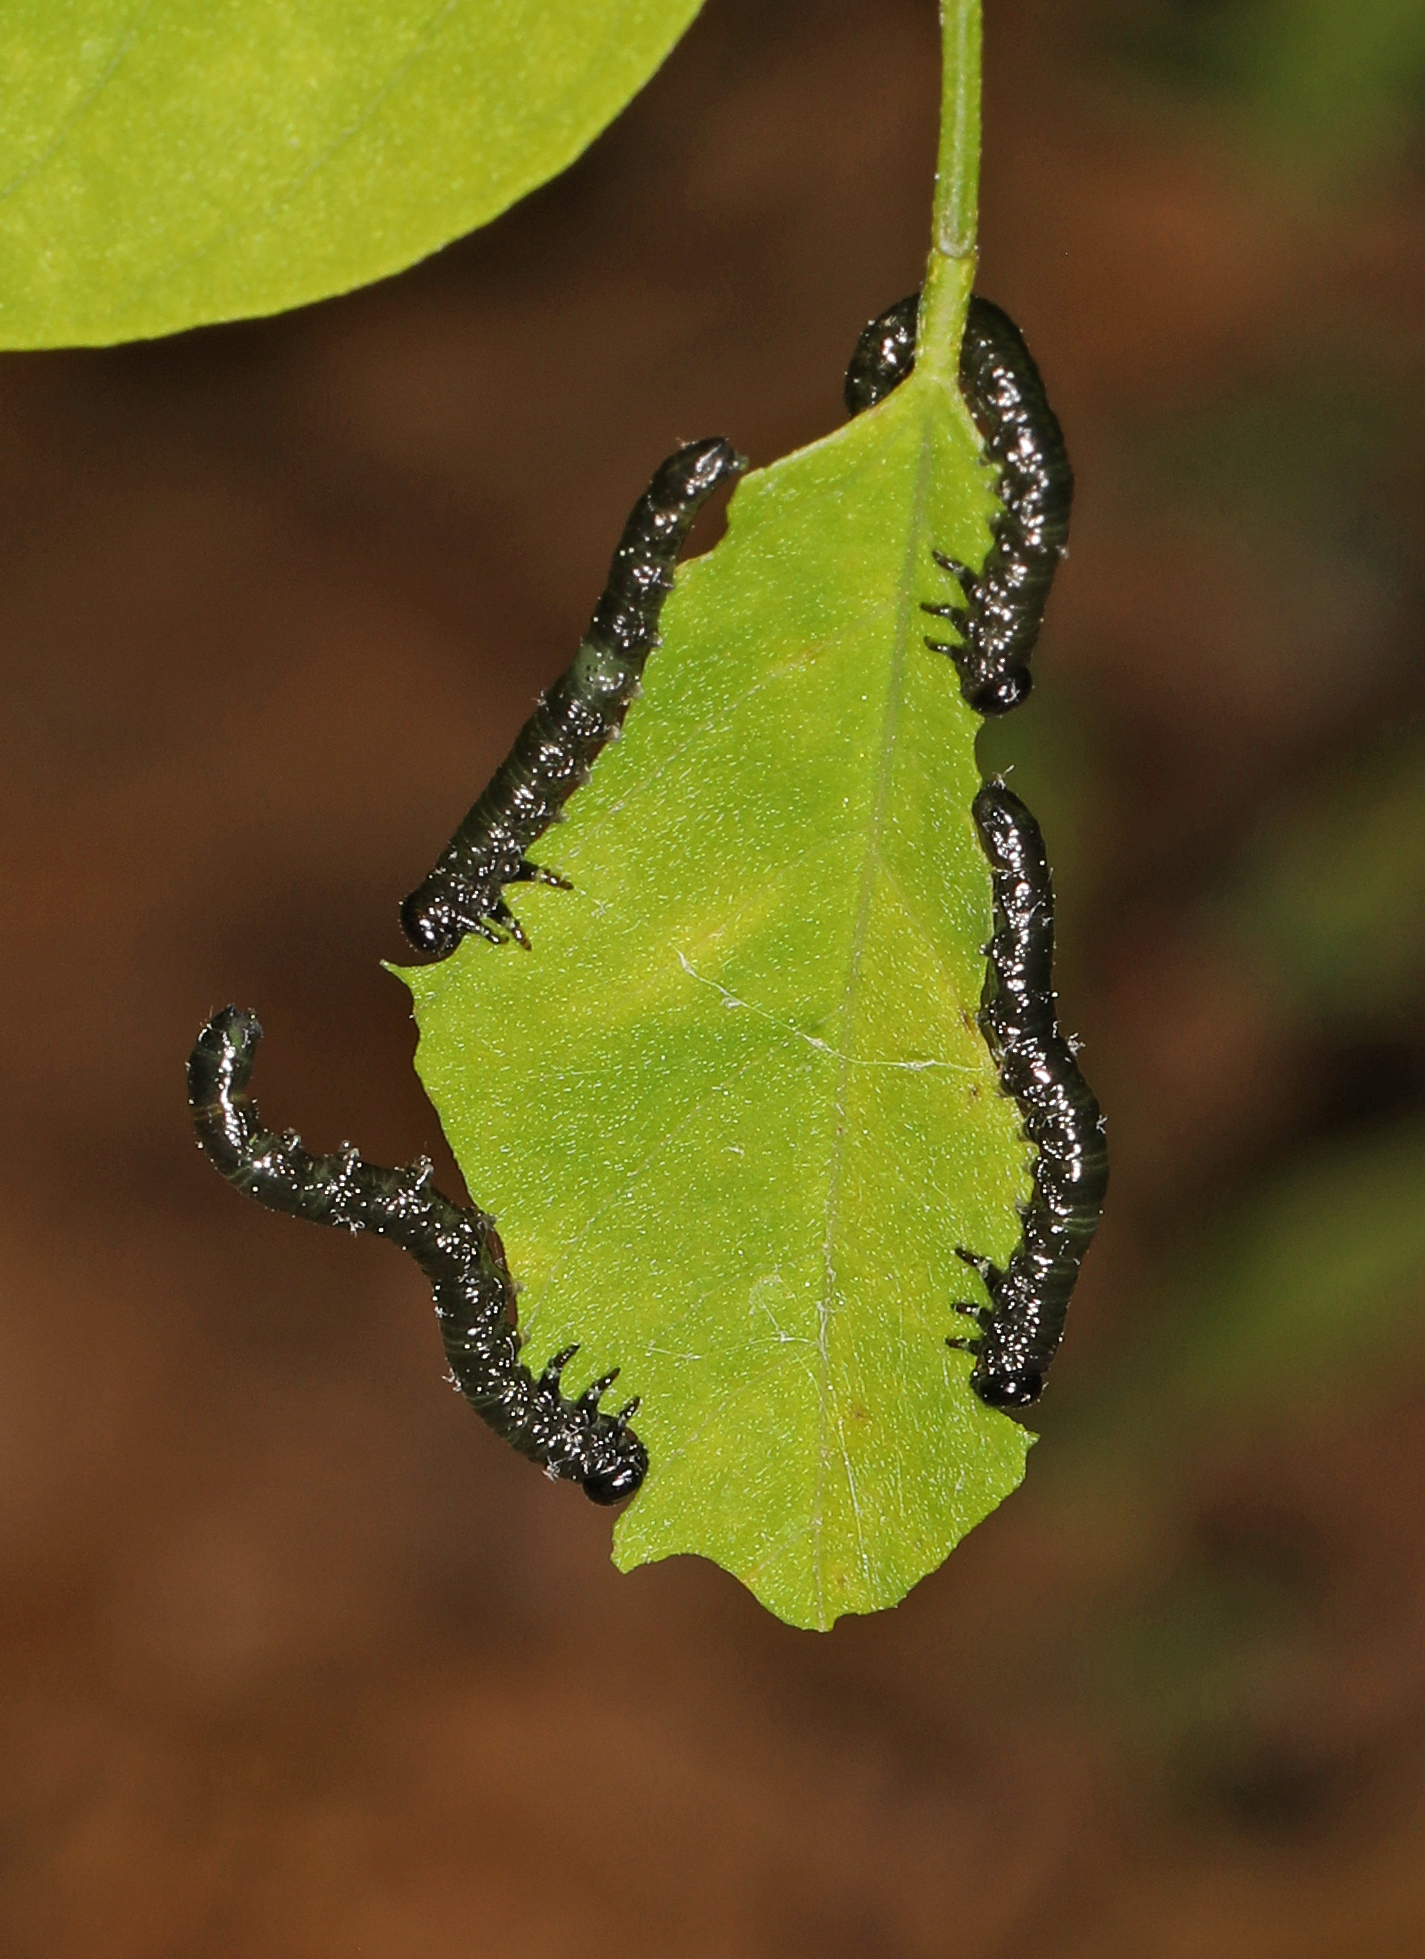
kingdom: Animalia
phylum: Arthropoda
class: Insecta
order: Hymenoptera
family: Tenthredinidae
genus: Nematus
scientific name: Nematus abbotii
